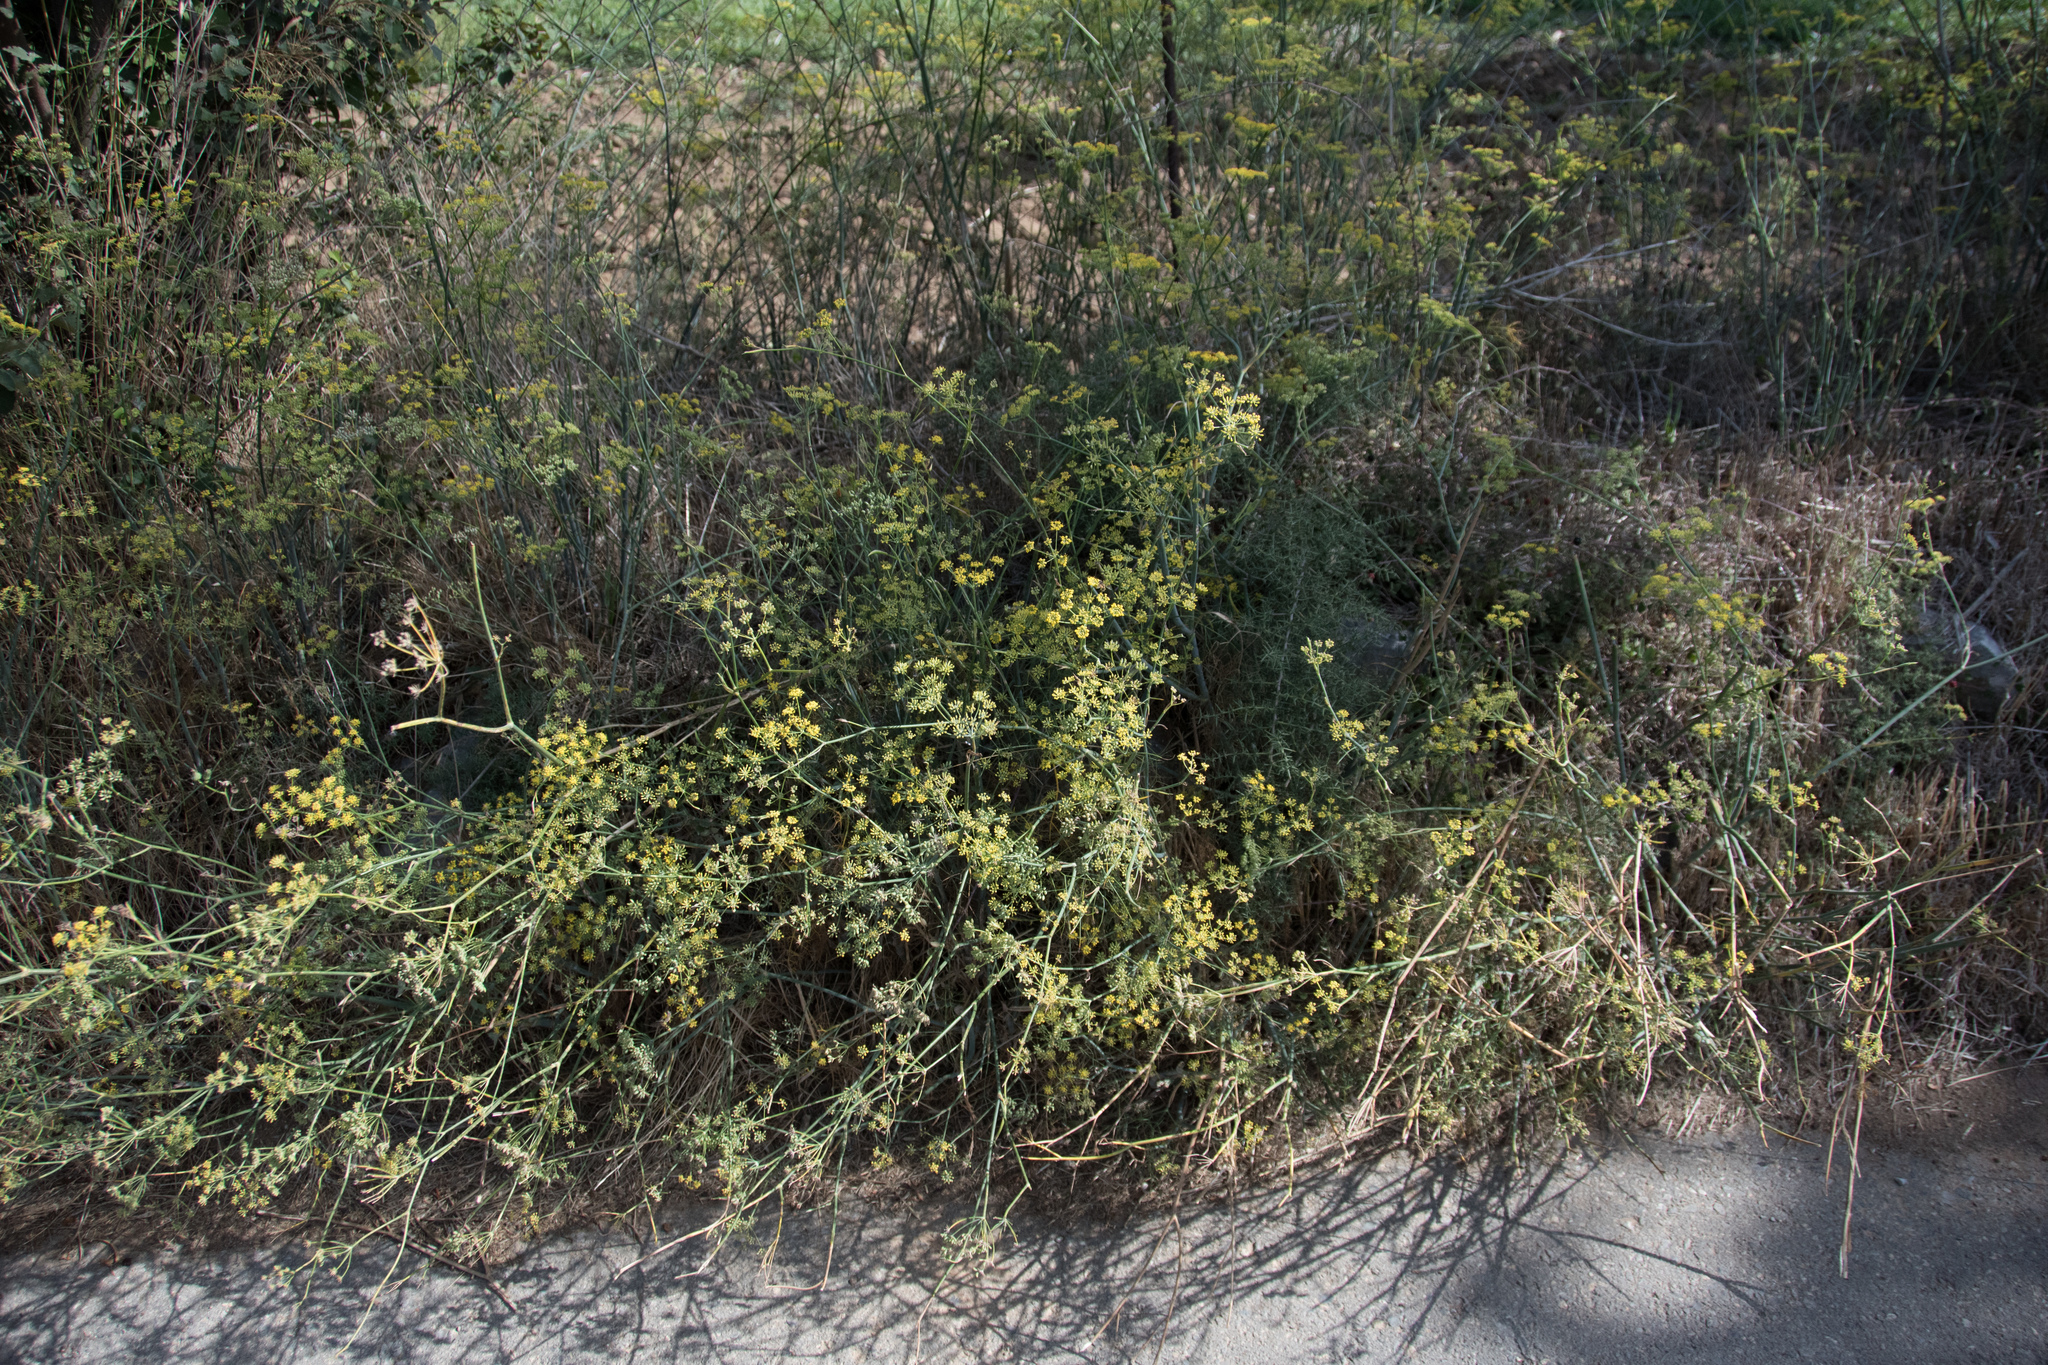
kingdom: Plantae
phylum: Tracheophyta
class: Magnoliopsida
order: Apiales
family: Apiaceae
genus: Foeniculum
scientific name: Foeniculum vulgare
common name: Fennel
